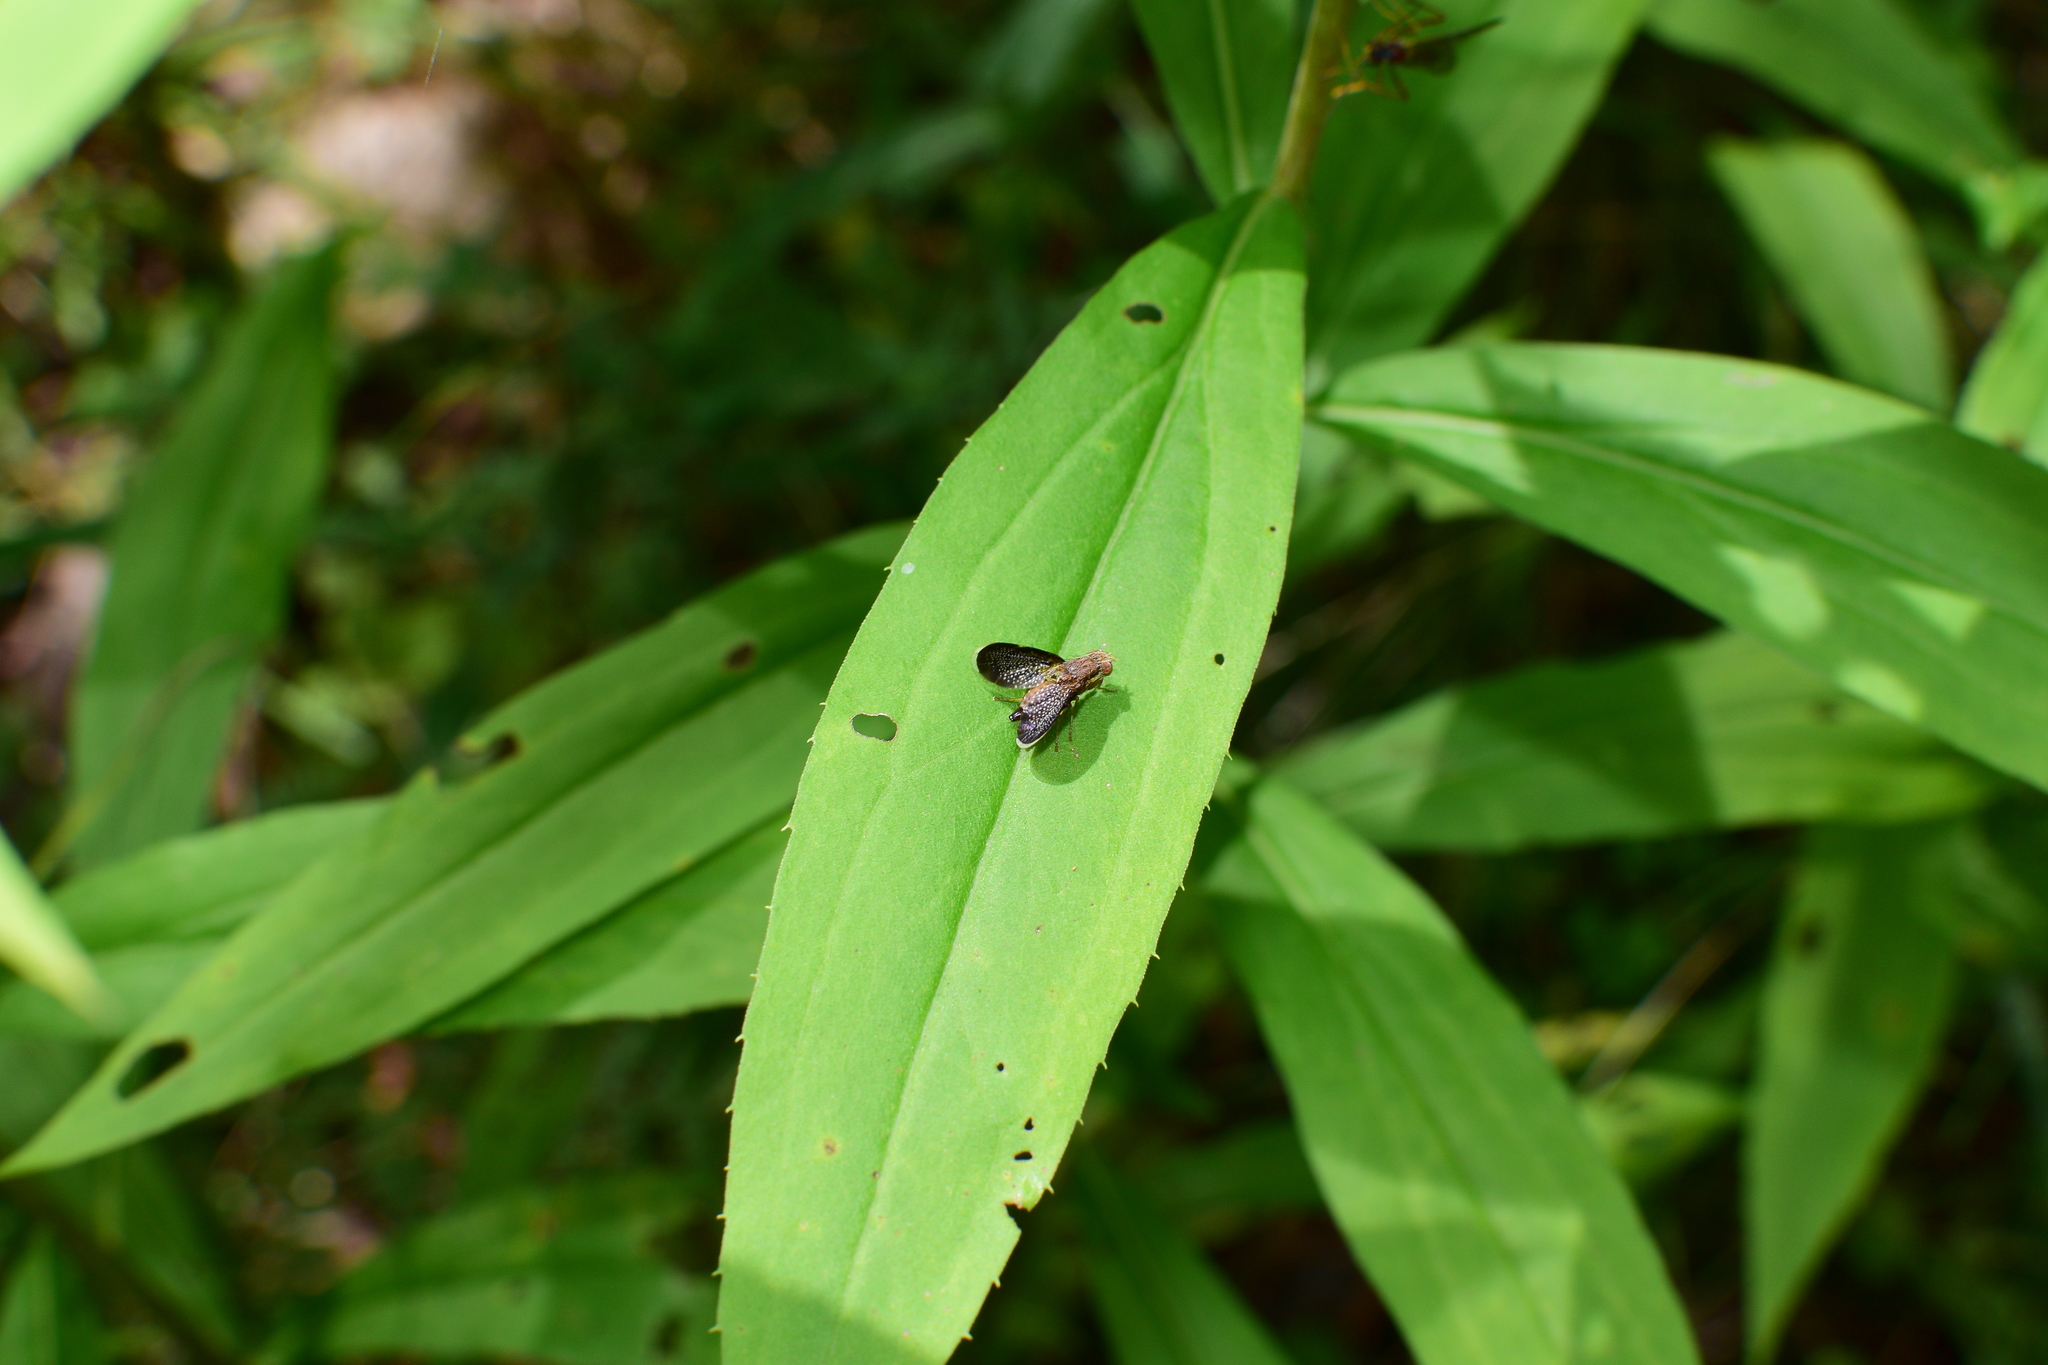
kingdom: Animalia
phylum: Arthropoda
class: Insecta
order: Diptera
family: Tephritidae
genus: Eutreta
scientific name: Eutreta novaeboracensis
